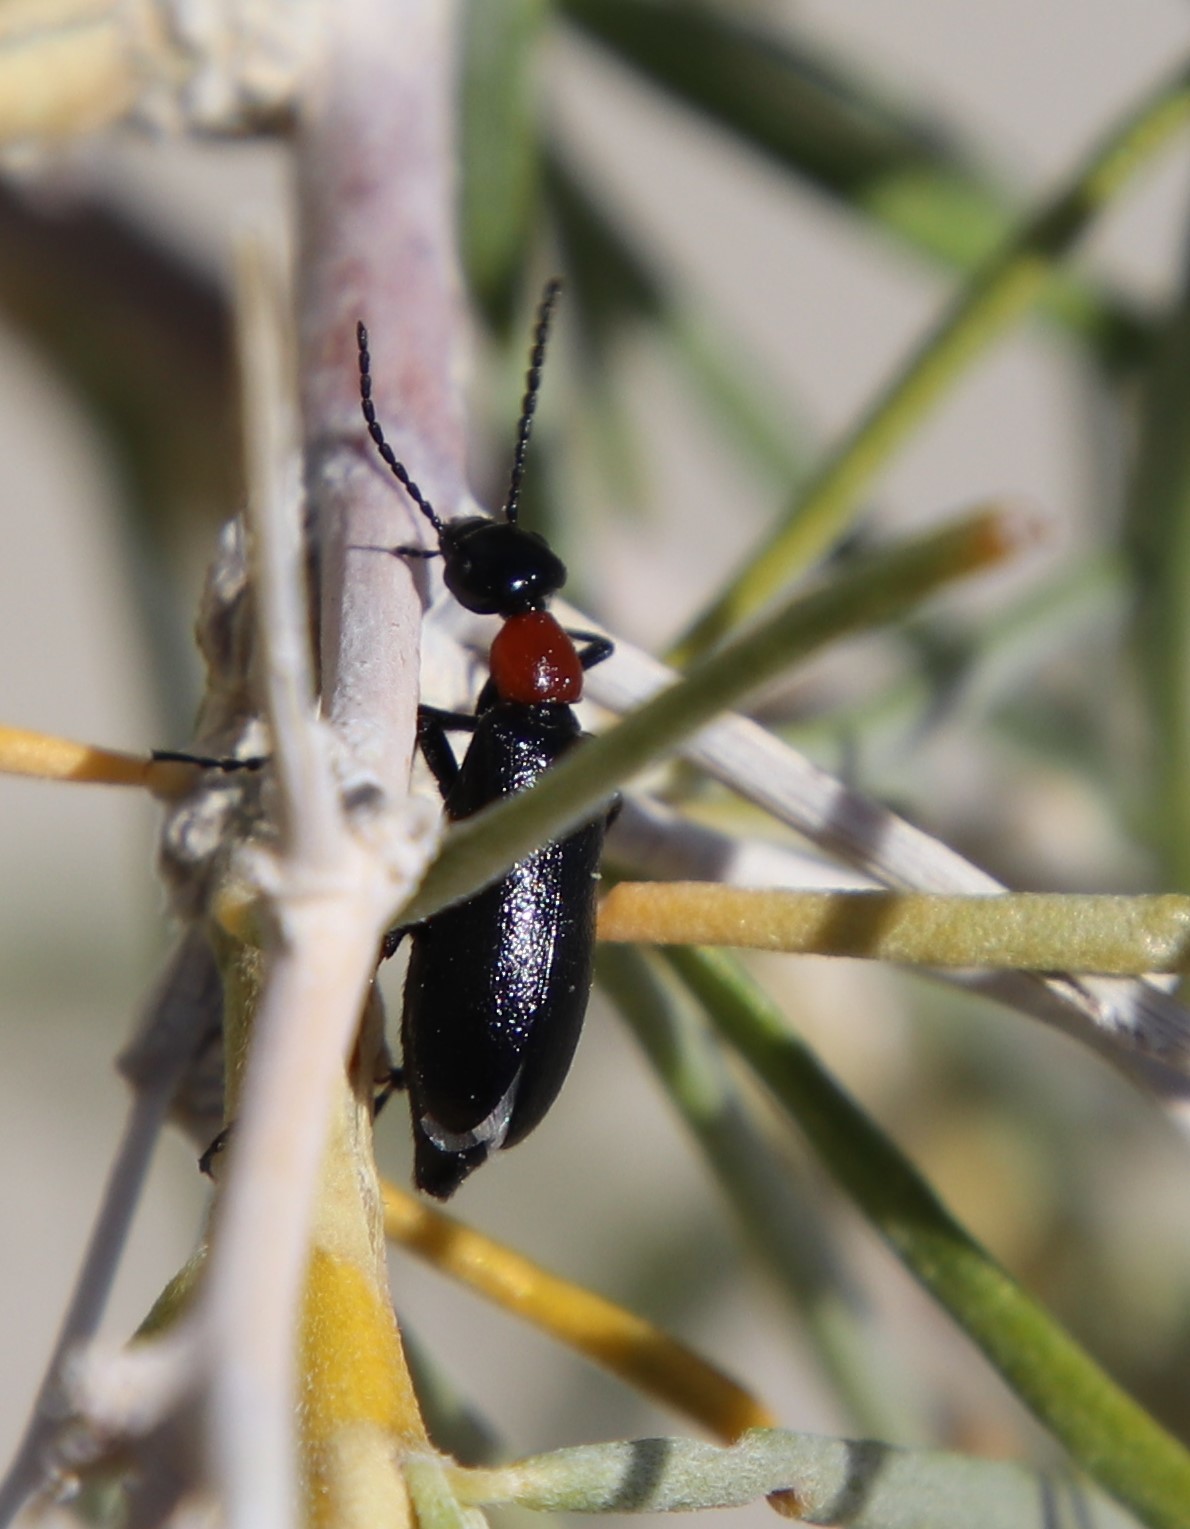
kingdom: Animalia
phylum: Arthropoda
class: Insecta
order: Coleoptera
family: Meloidae
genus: Spastonyx
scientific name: Spastonyx nemognathoides
